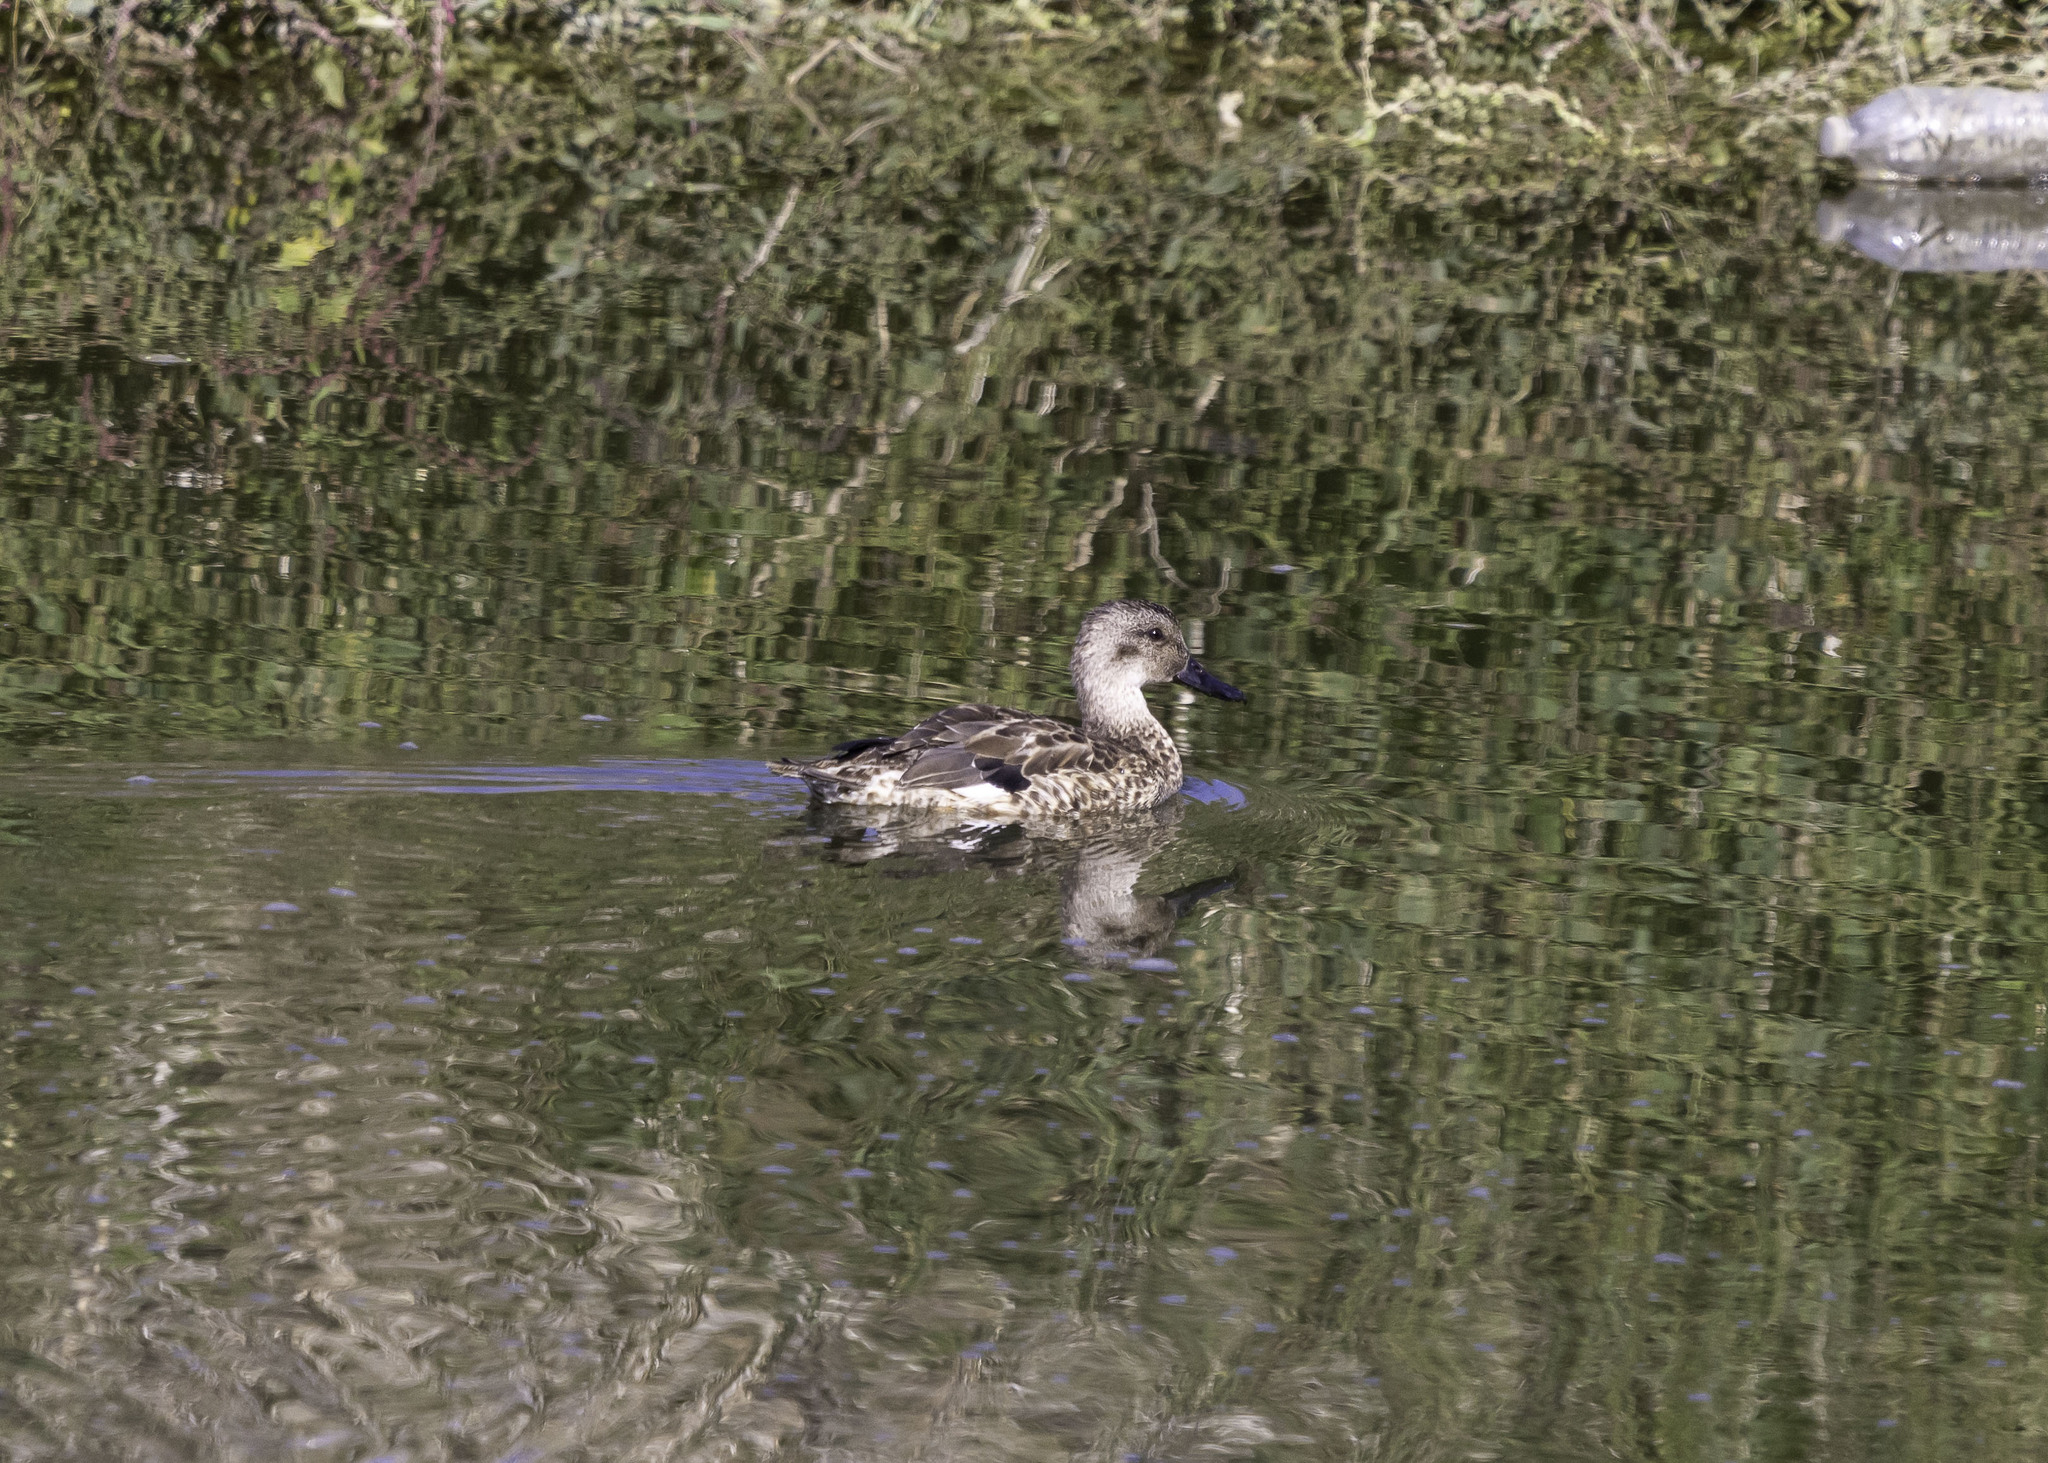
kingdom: Animalia
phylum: Chordata
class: Aves
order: Anseriformes
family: Anatidae
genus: Mareca
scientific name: Mareca strepera
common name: Gadwall
